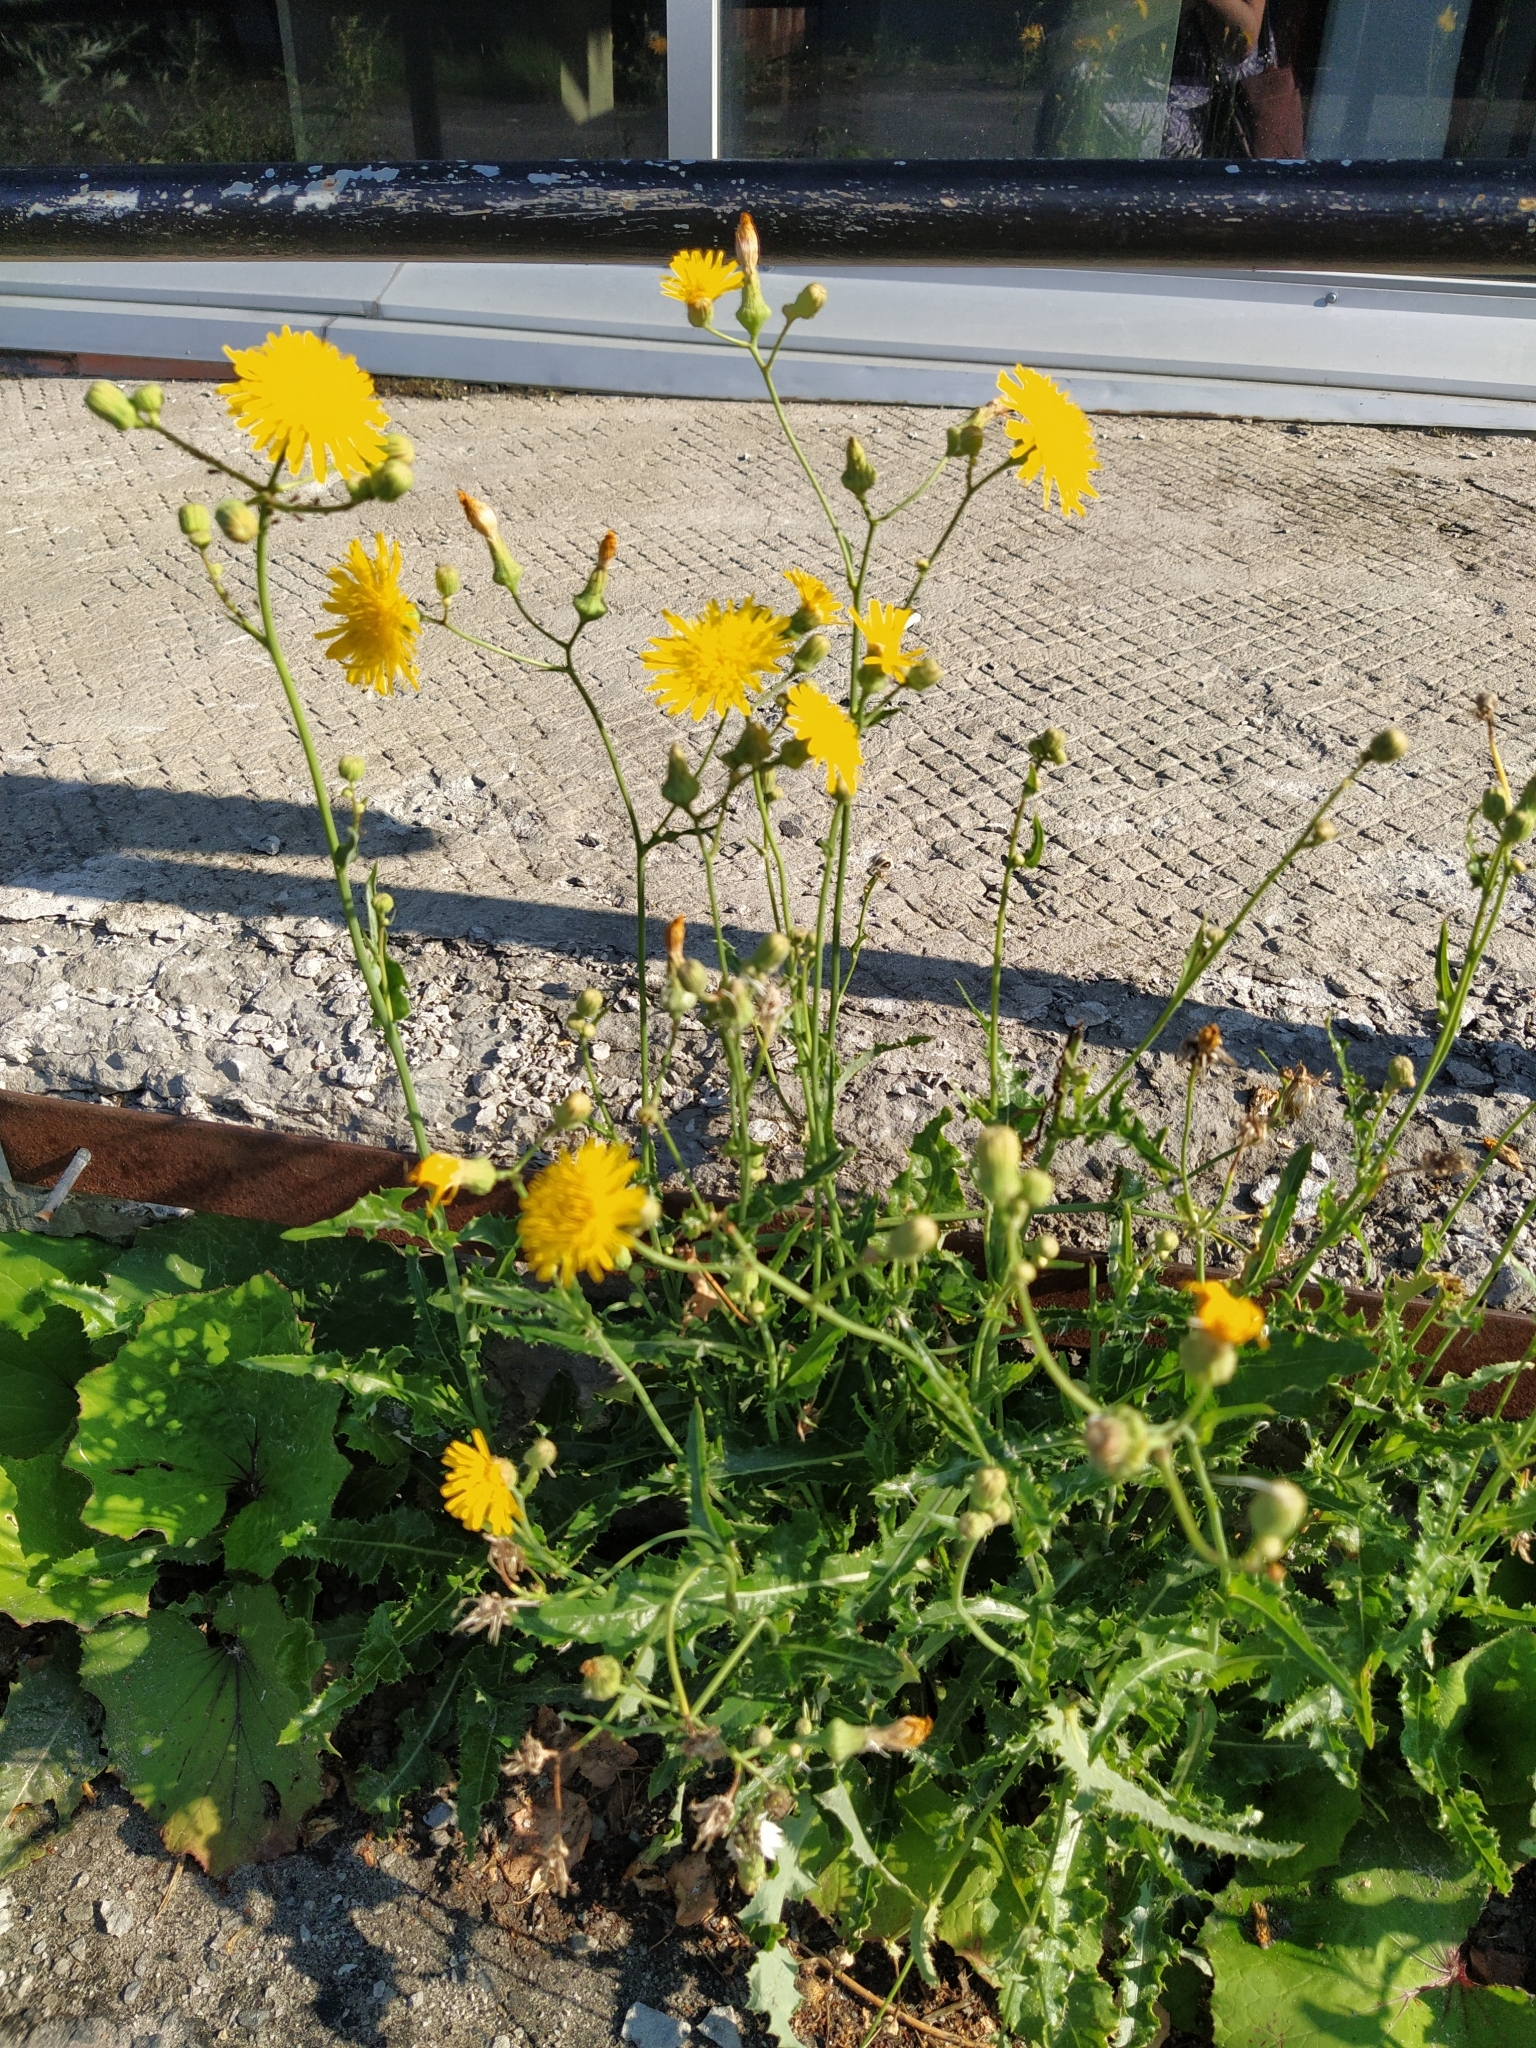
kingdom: Plantae
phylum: Tracheophyta
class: Magnoliopsida
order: Asterales
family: Asteraceae
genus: Sonchus
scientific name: Sonchus arvensis
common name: Perennial sow-thistle
